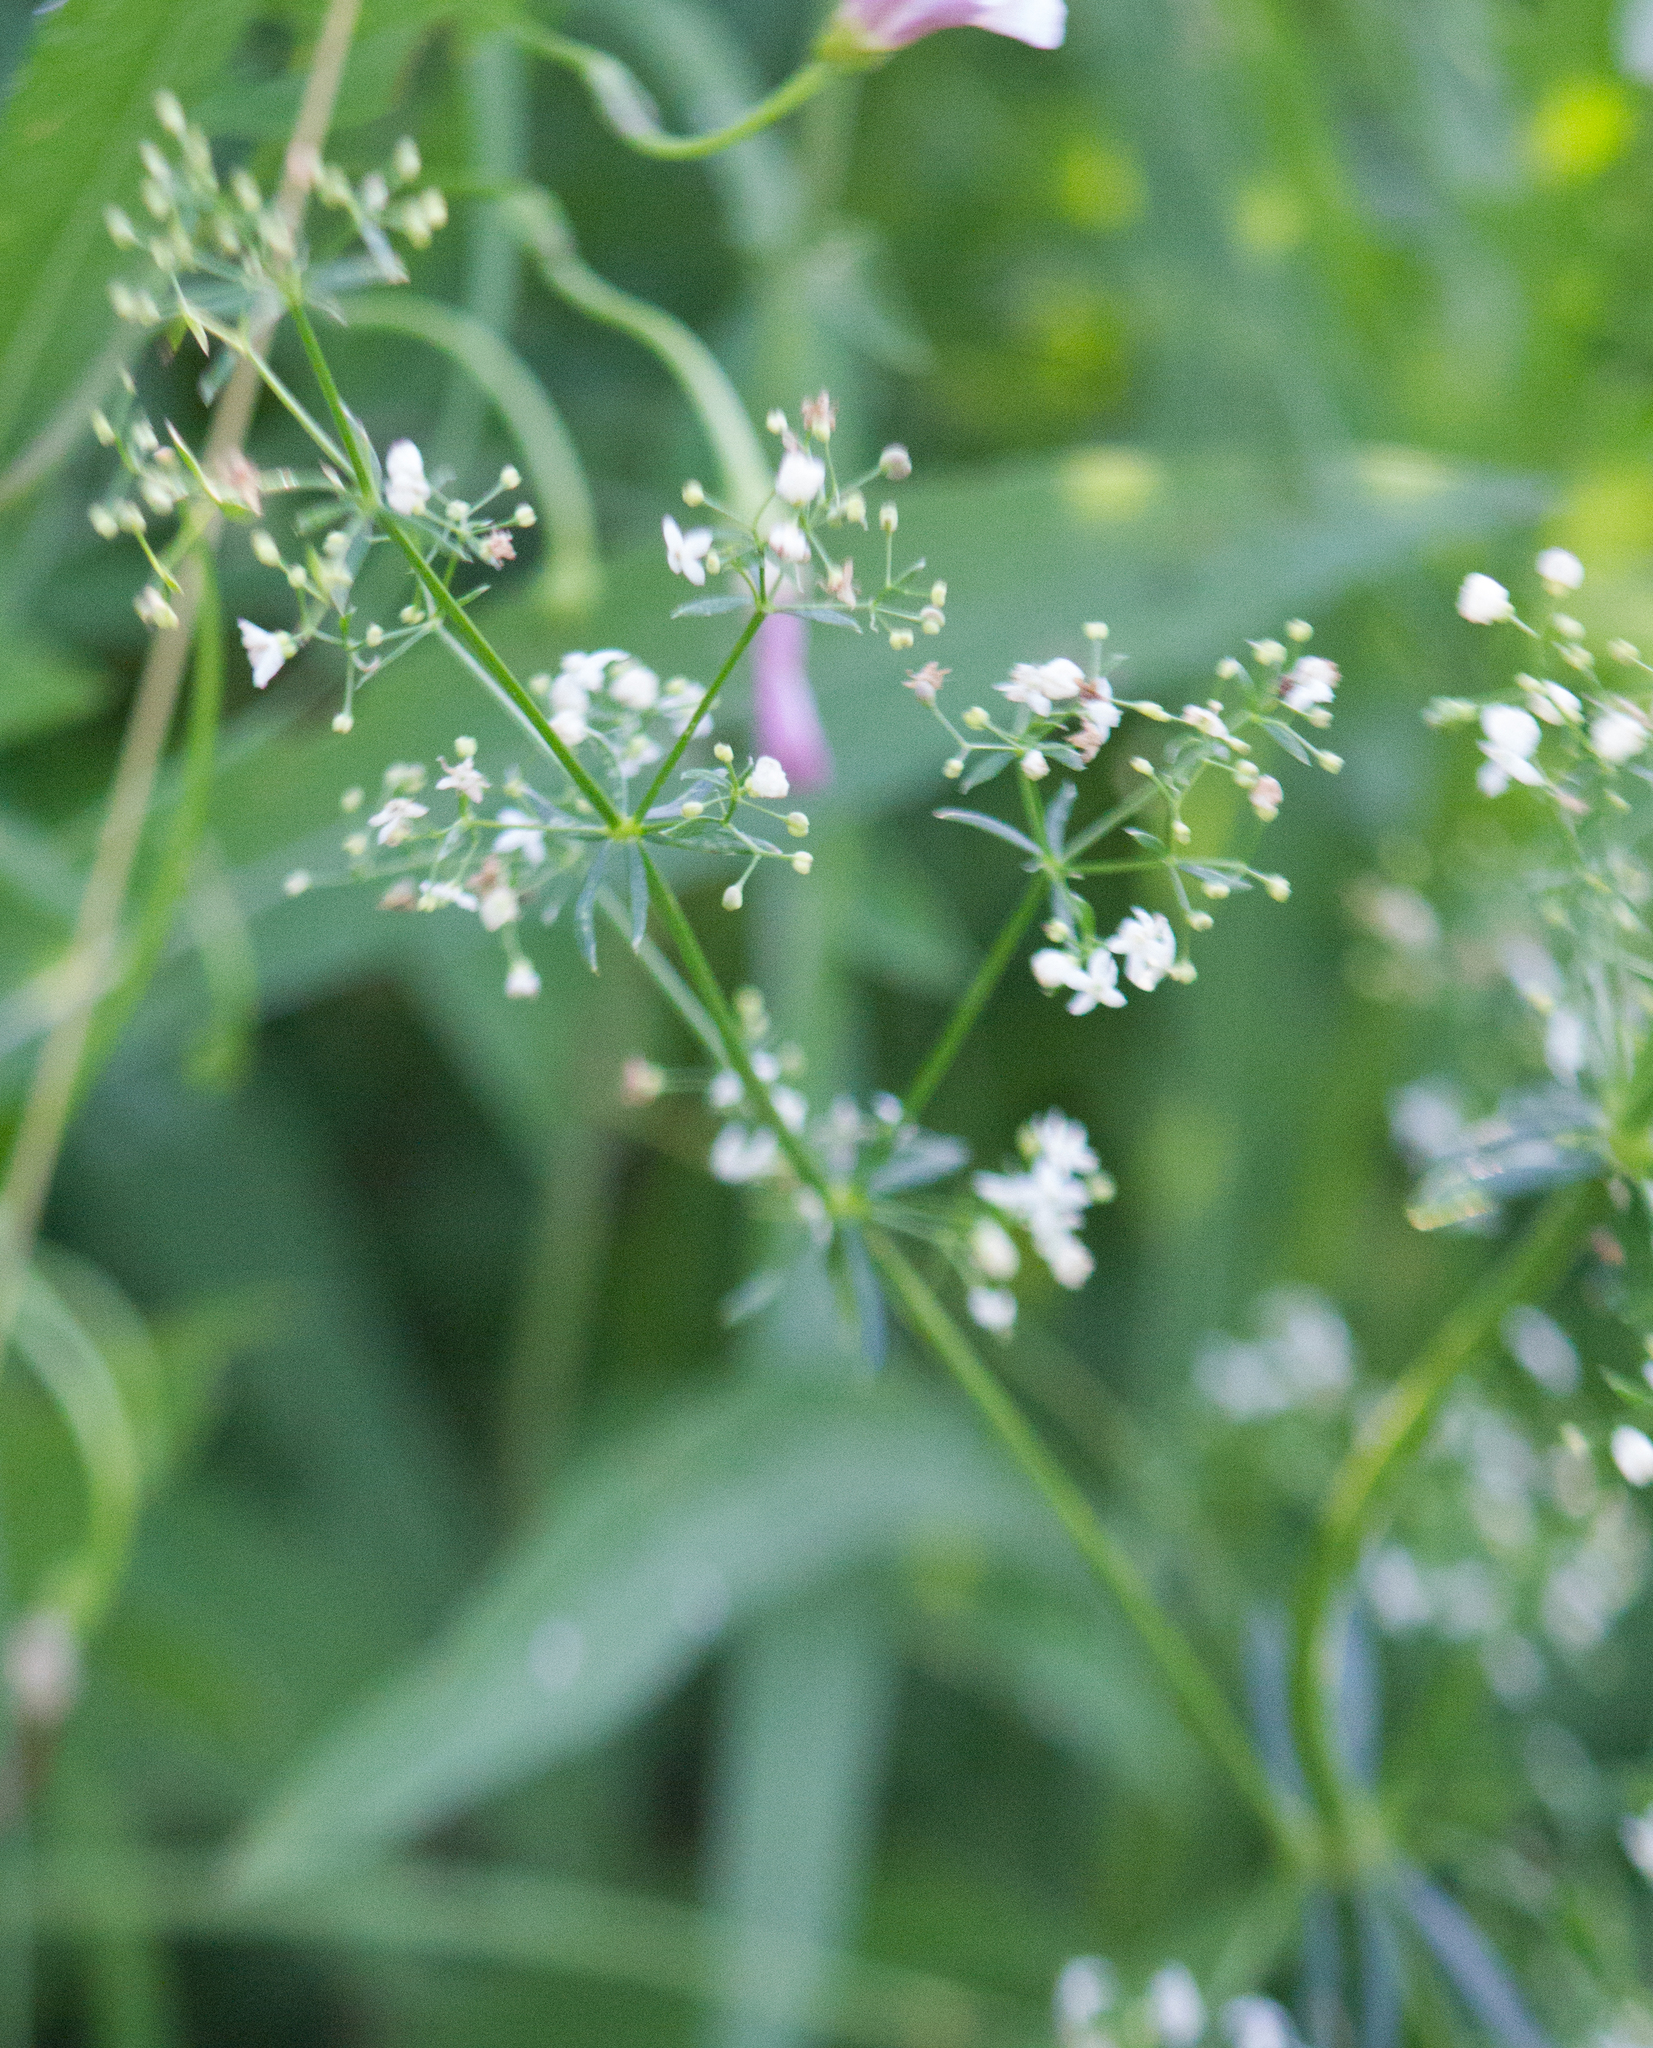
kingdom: Plantae
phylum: Tracheophyta
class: Magnoliopsida
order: Gentianales
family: Rubiaceae
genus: Galium
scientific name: Galium mollugo
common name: Hedge bedstraw
